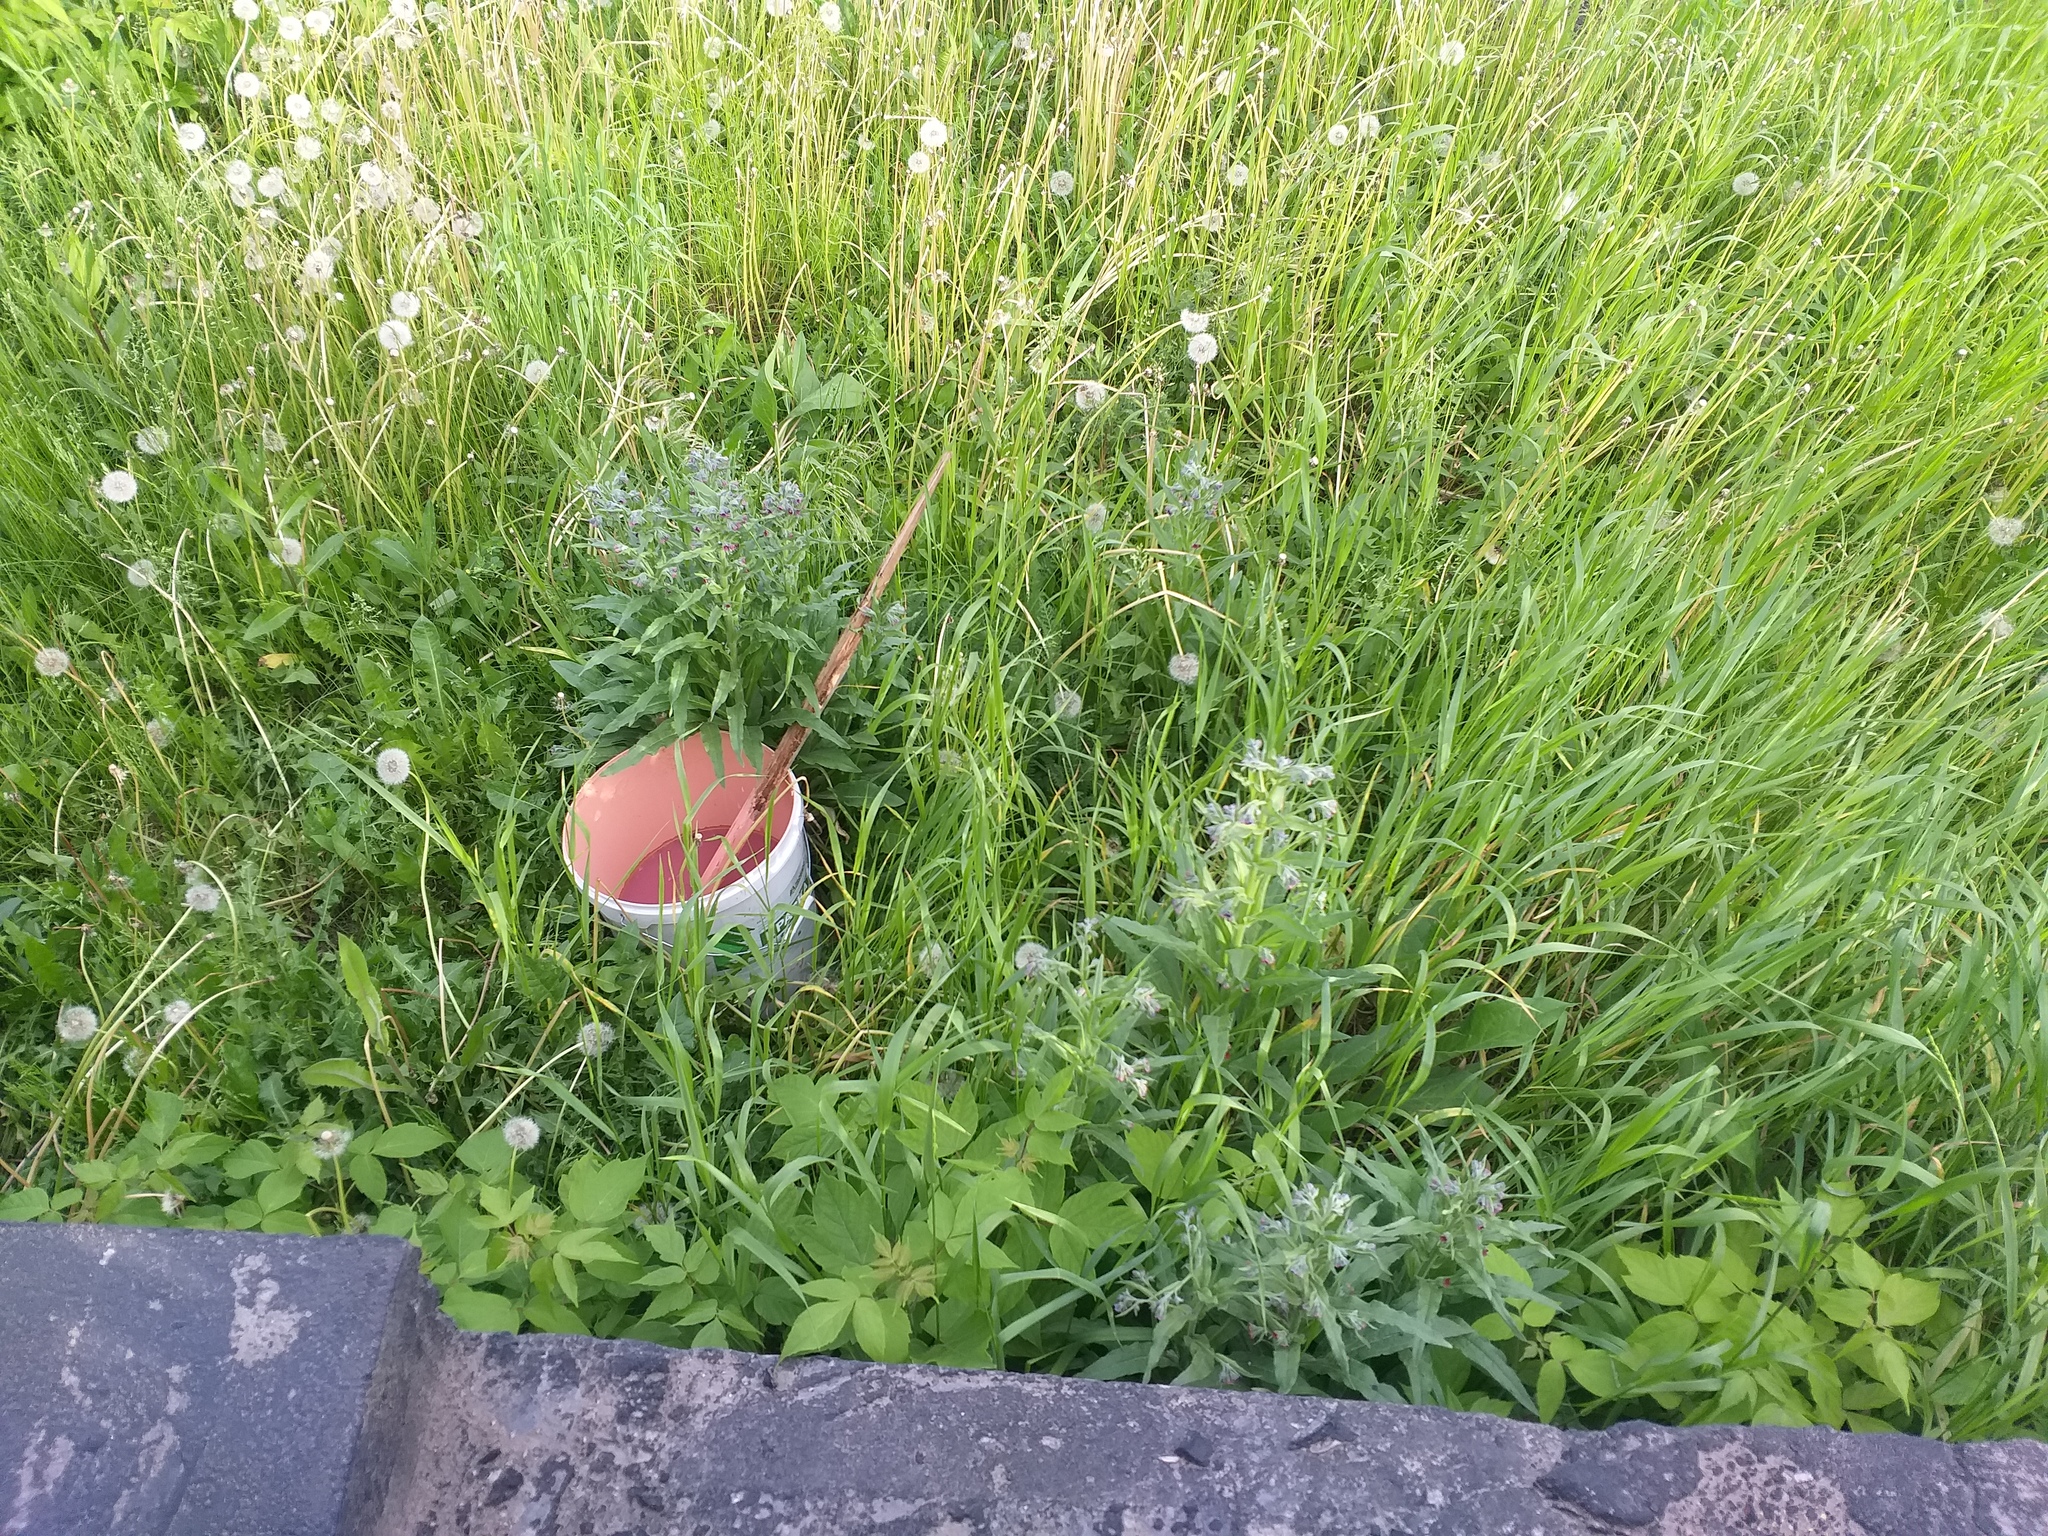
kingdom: Plantae
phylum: Tracheophyta
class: Magnoliopsida
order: Boraginales
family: Boraginaceae
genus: Cynoglossum
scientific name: Cynoglossum officinale
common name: Hound's-tongue
